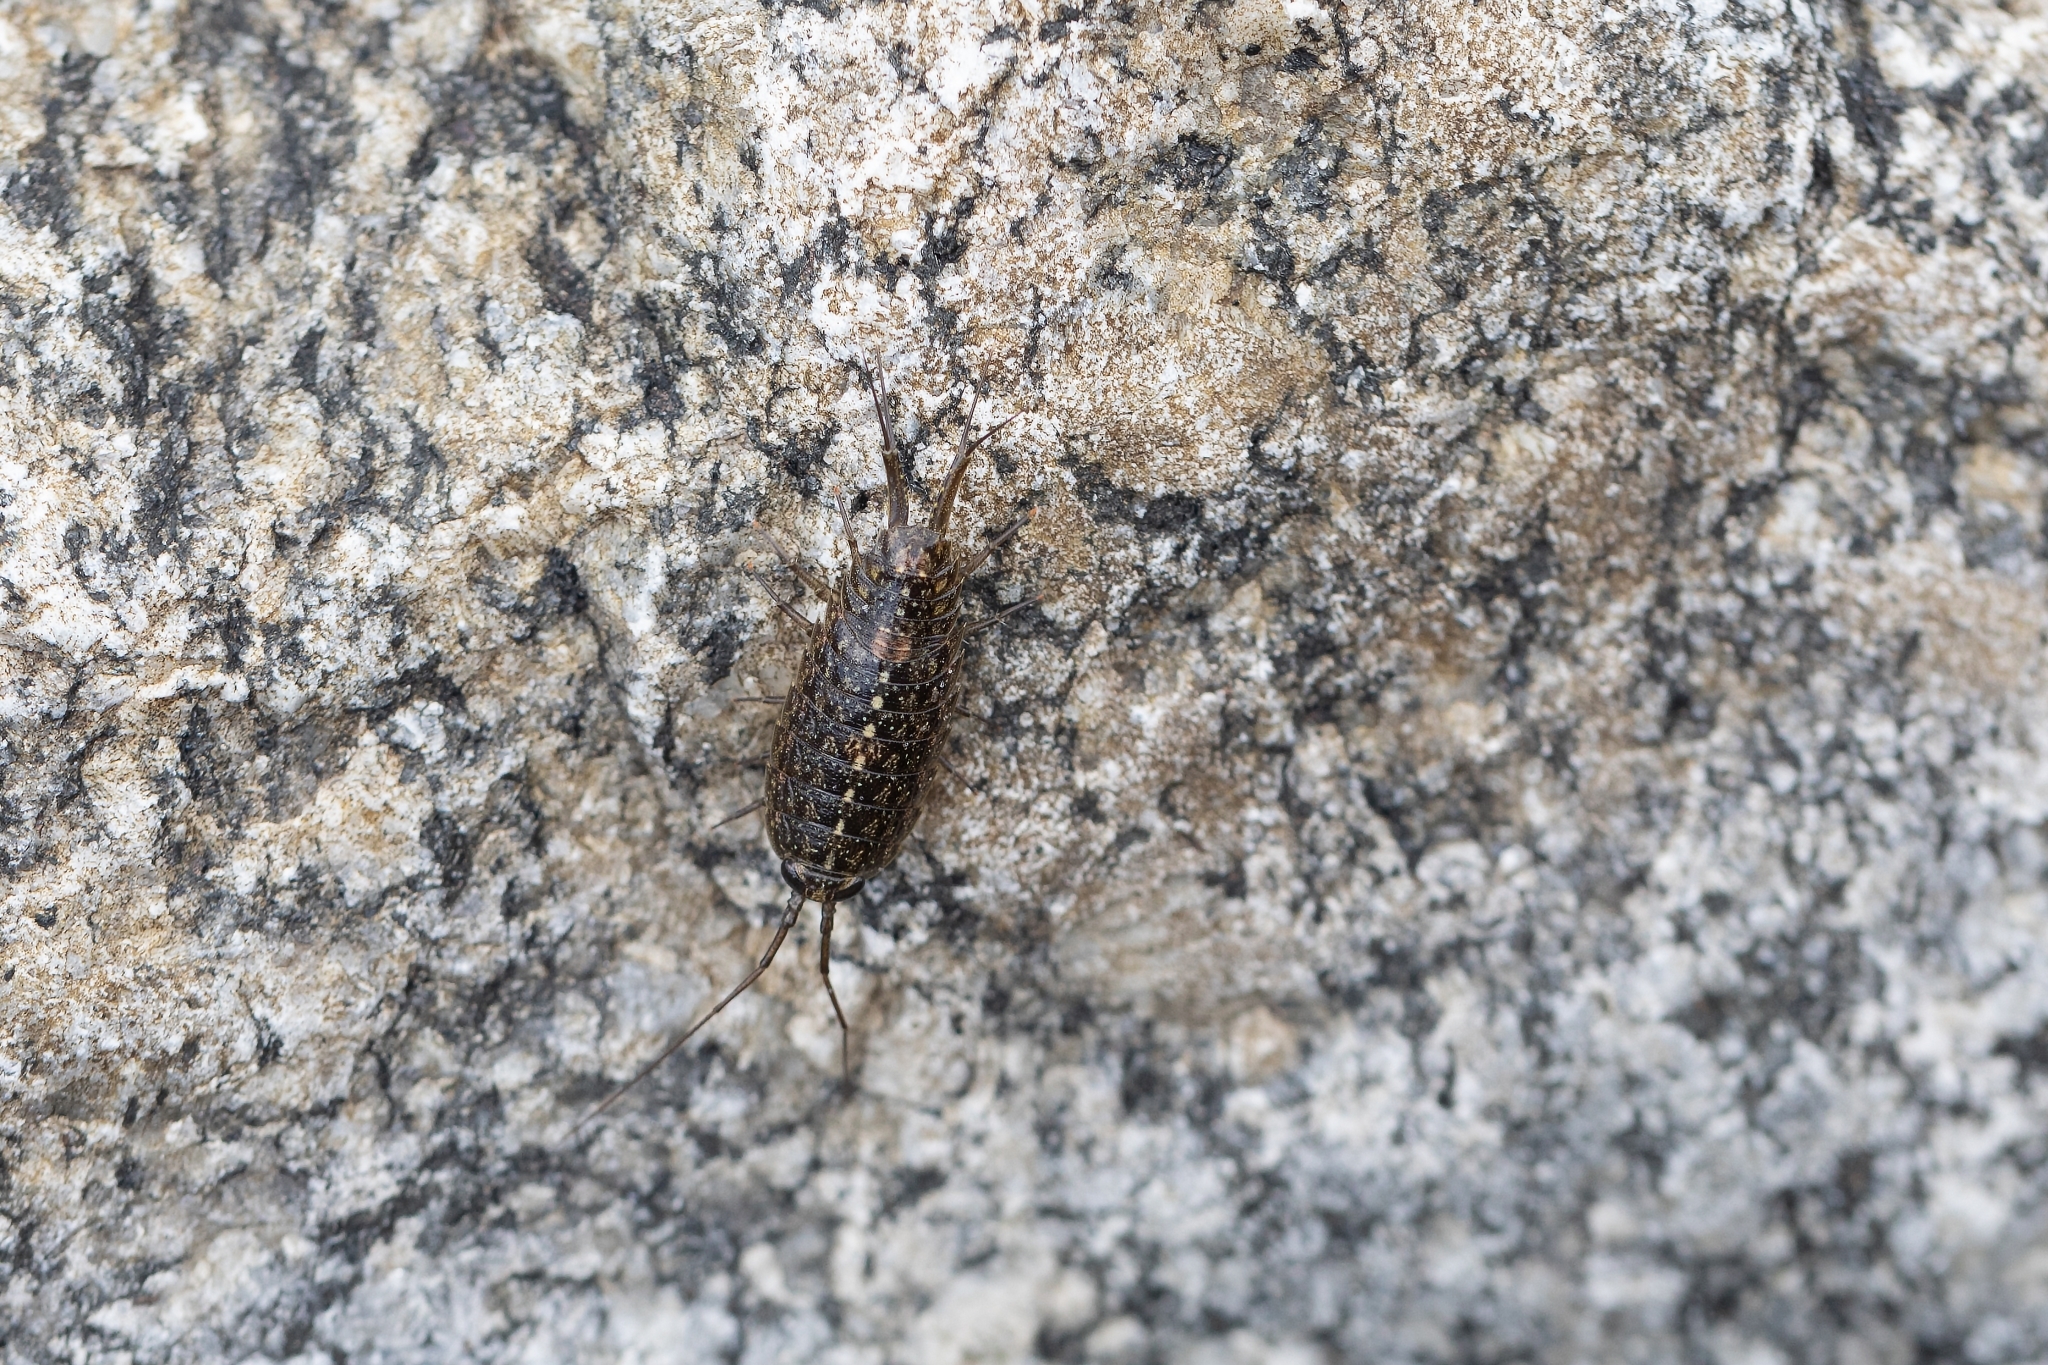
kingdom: Animalia
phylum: Arthropoda
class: Malacostraca
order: Isopoda
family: Ligiidae
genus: Ligia
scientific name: Ligia exotica
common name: Wharf roach
